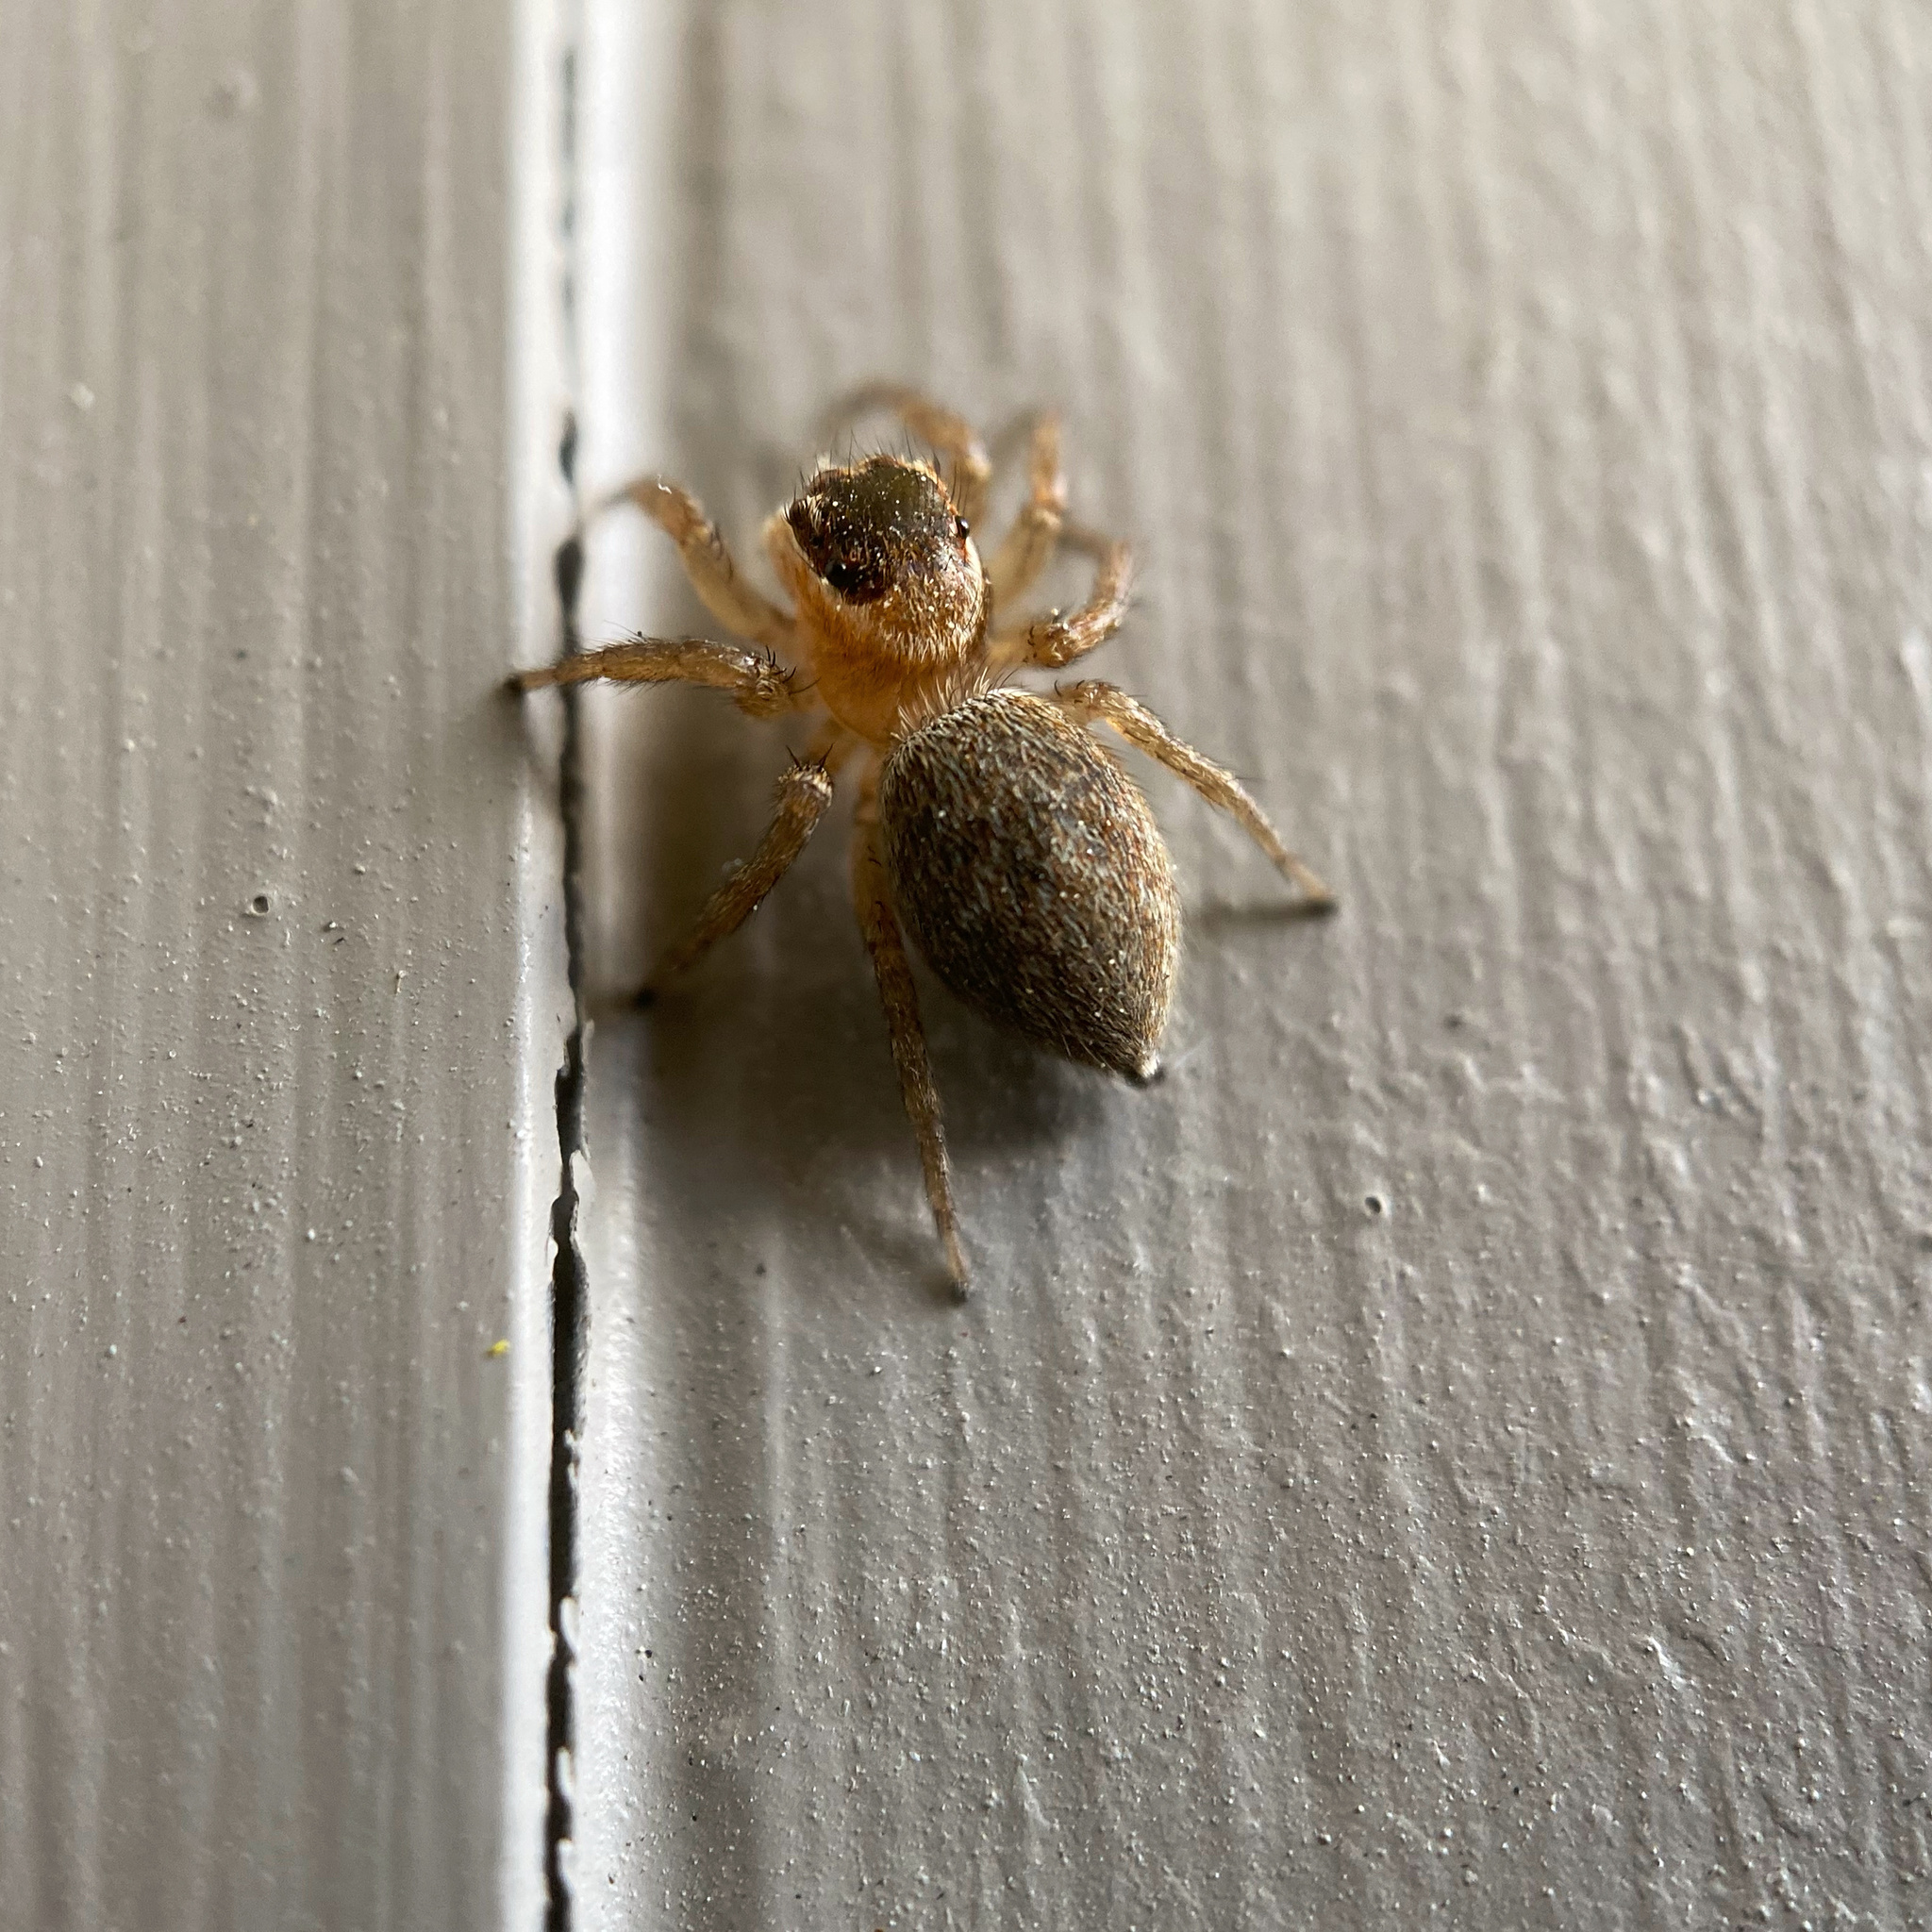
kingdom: Animalia
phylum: Arthropoda
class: Arachnida
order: Araneae
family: Salticidae
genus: Maratus
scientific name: Maratus griseus
